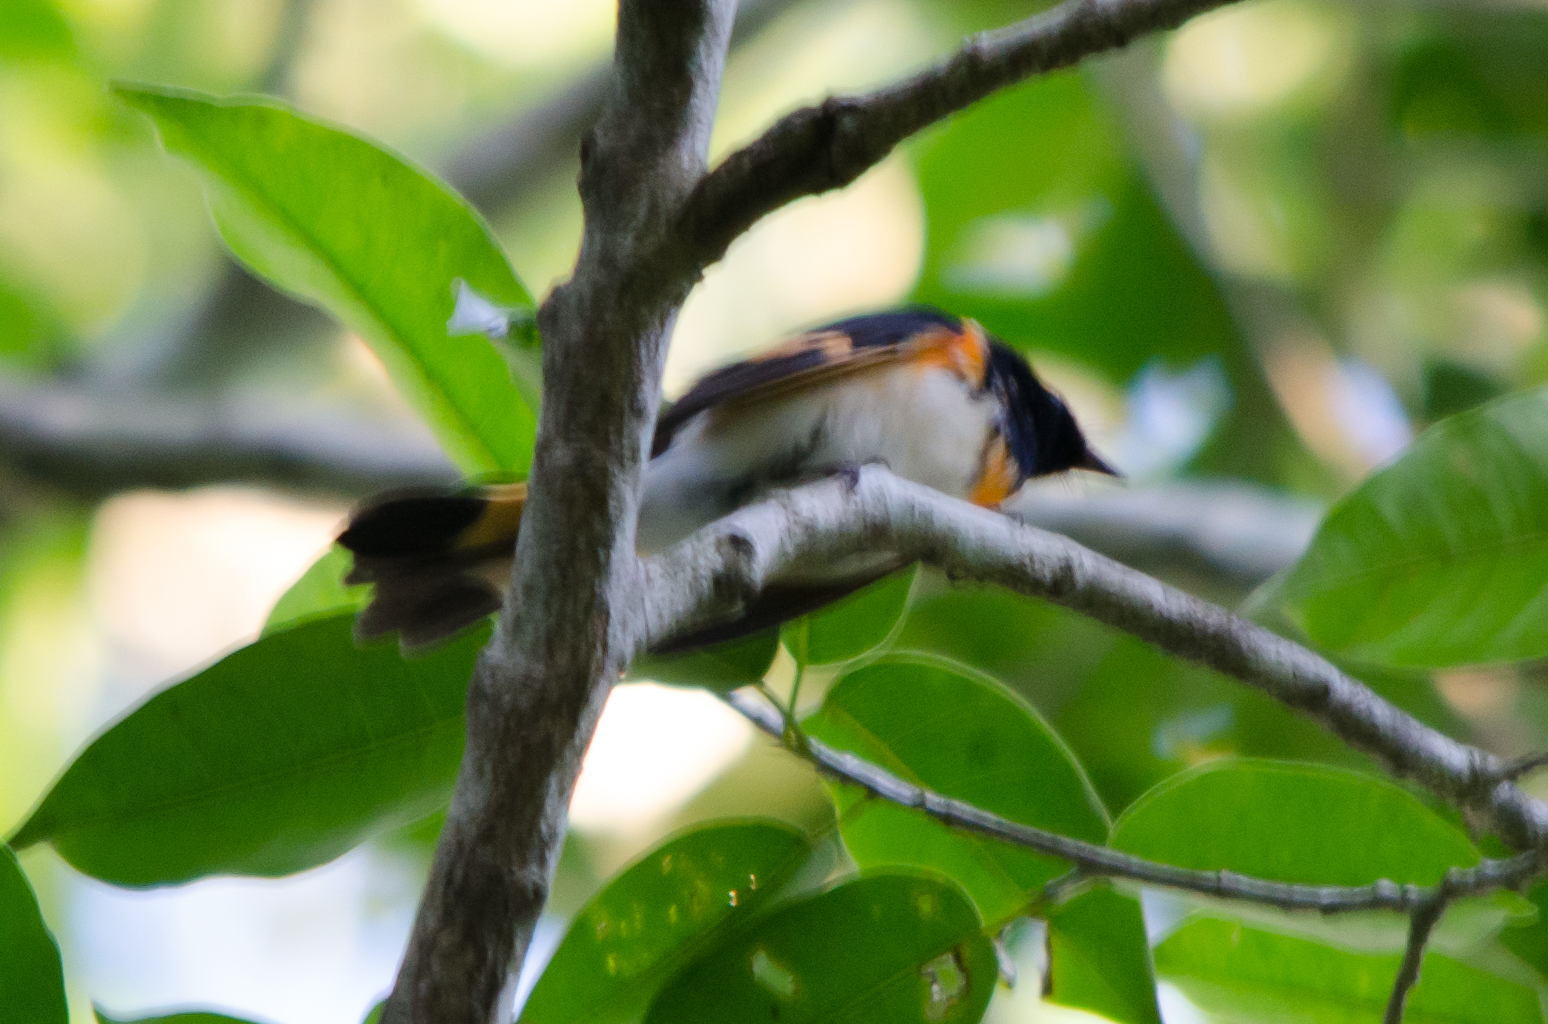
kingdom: Animalia
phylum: Chordata
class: Aves
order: Passeriformes
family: Parulidae
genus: Setophaga
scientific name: Setophaga ruticilla
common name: American redstart
